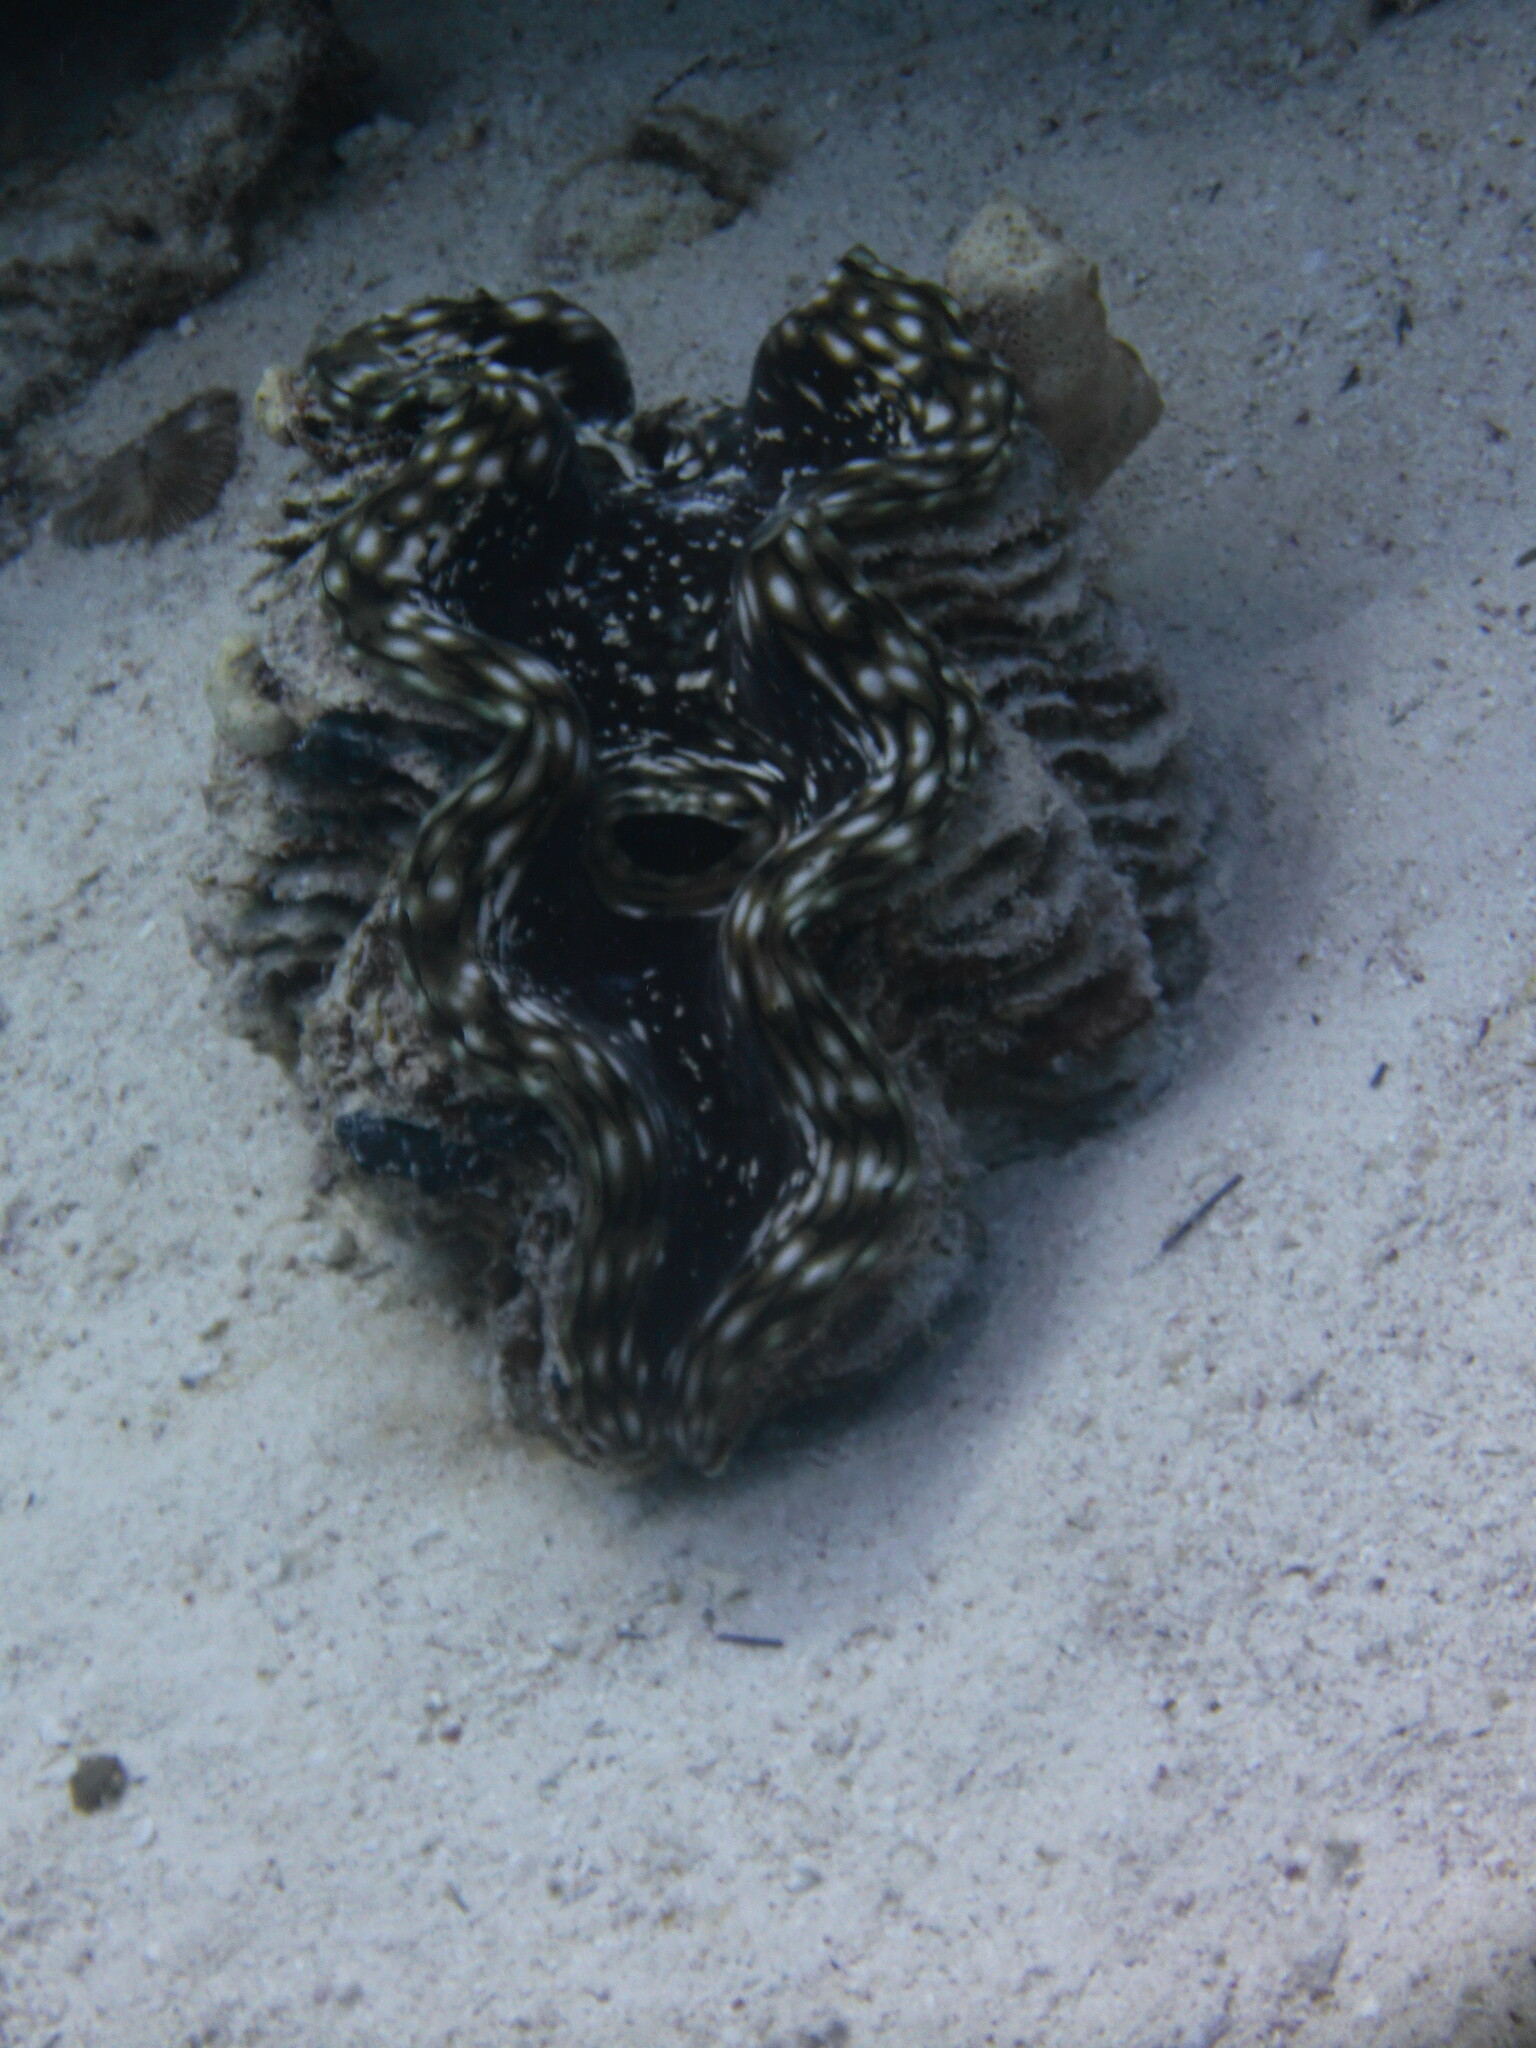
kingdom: Animalia
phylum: Mollusca
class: Bivalvia
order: Cardiida
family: Cardiidae
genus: Tridacna
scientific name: Tridacna squamosa
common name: Fluted clam
